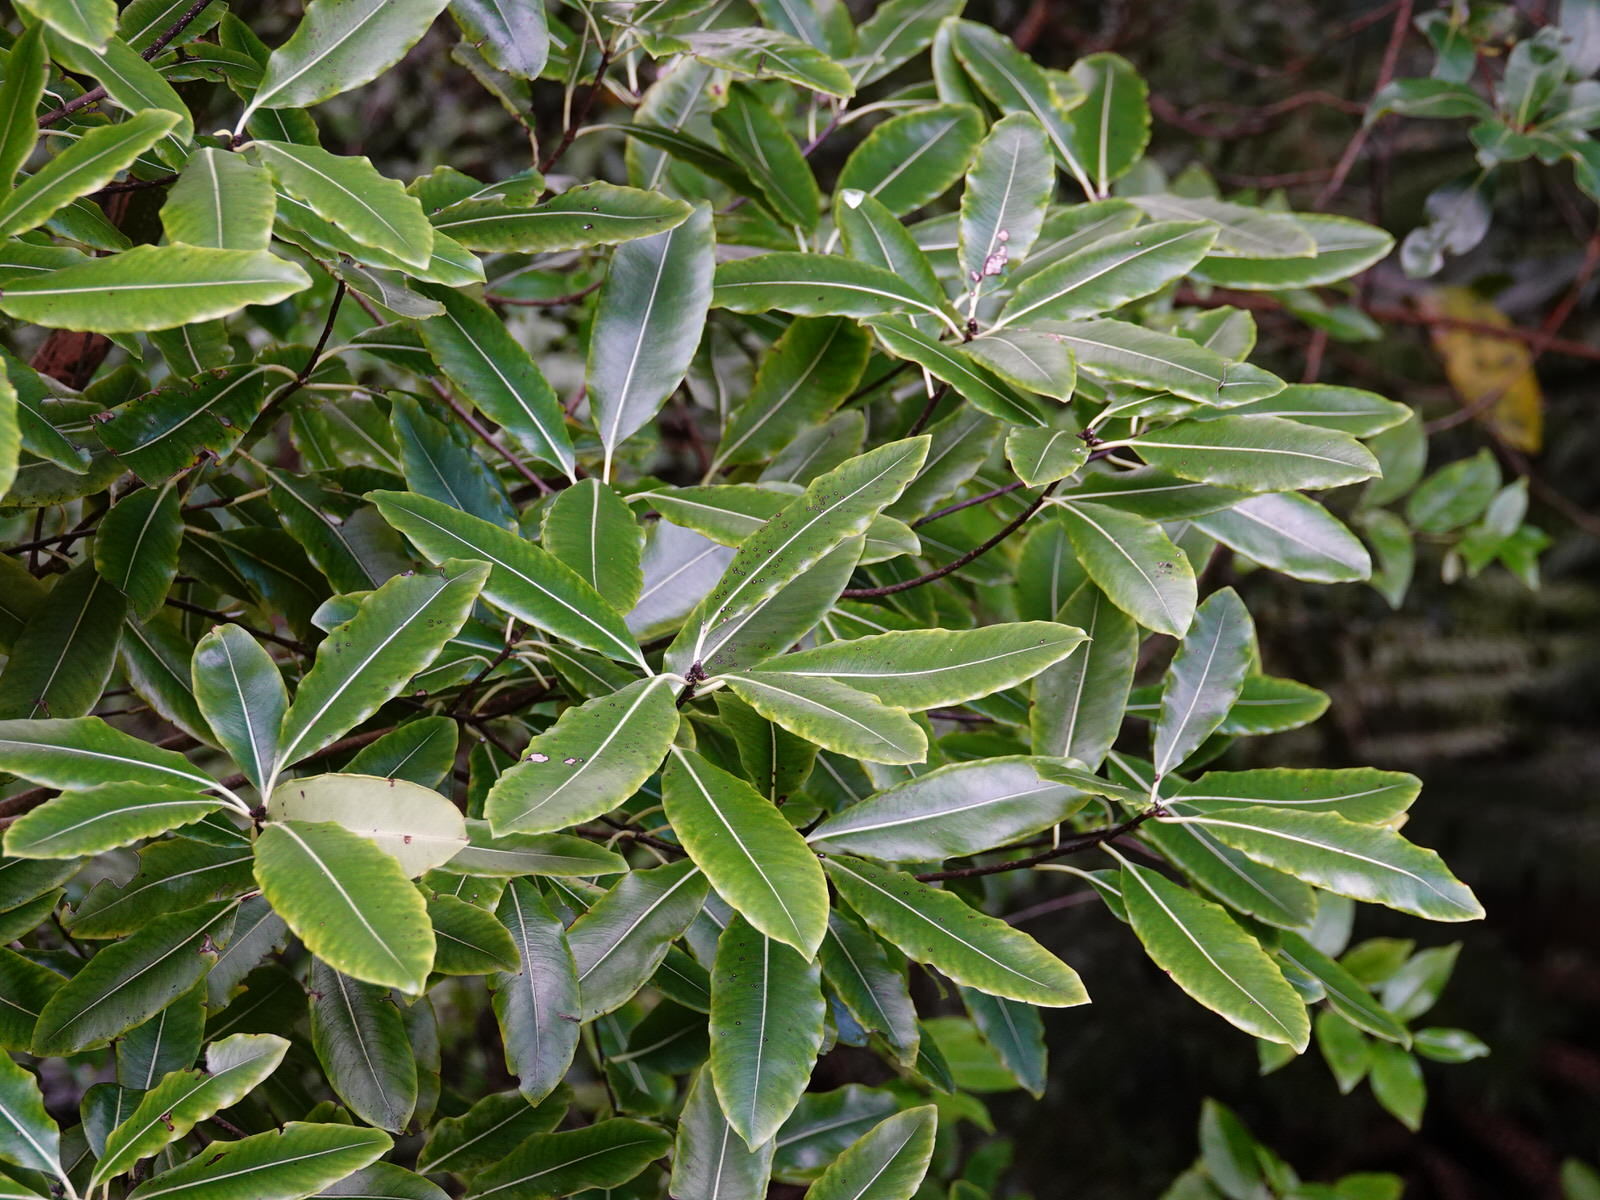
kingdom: Plantae
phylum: Tracheophyta
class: Magnoliopsida
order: Apiales
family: Pittosporaceae
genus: Pittosporum
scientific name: Pittosporum eugenioides
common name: Lemonwood
